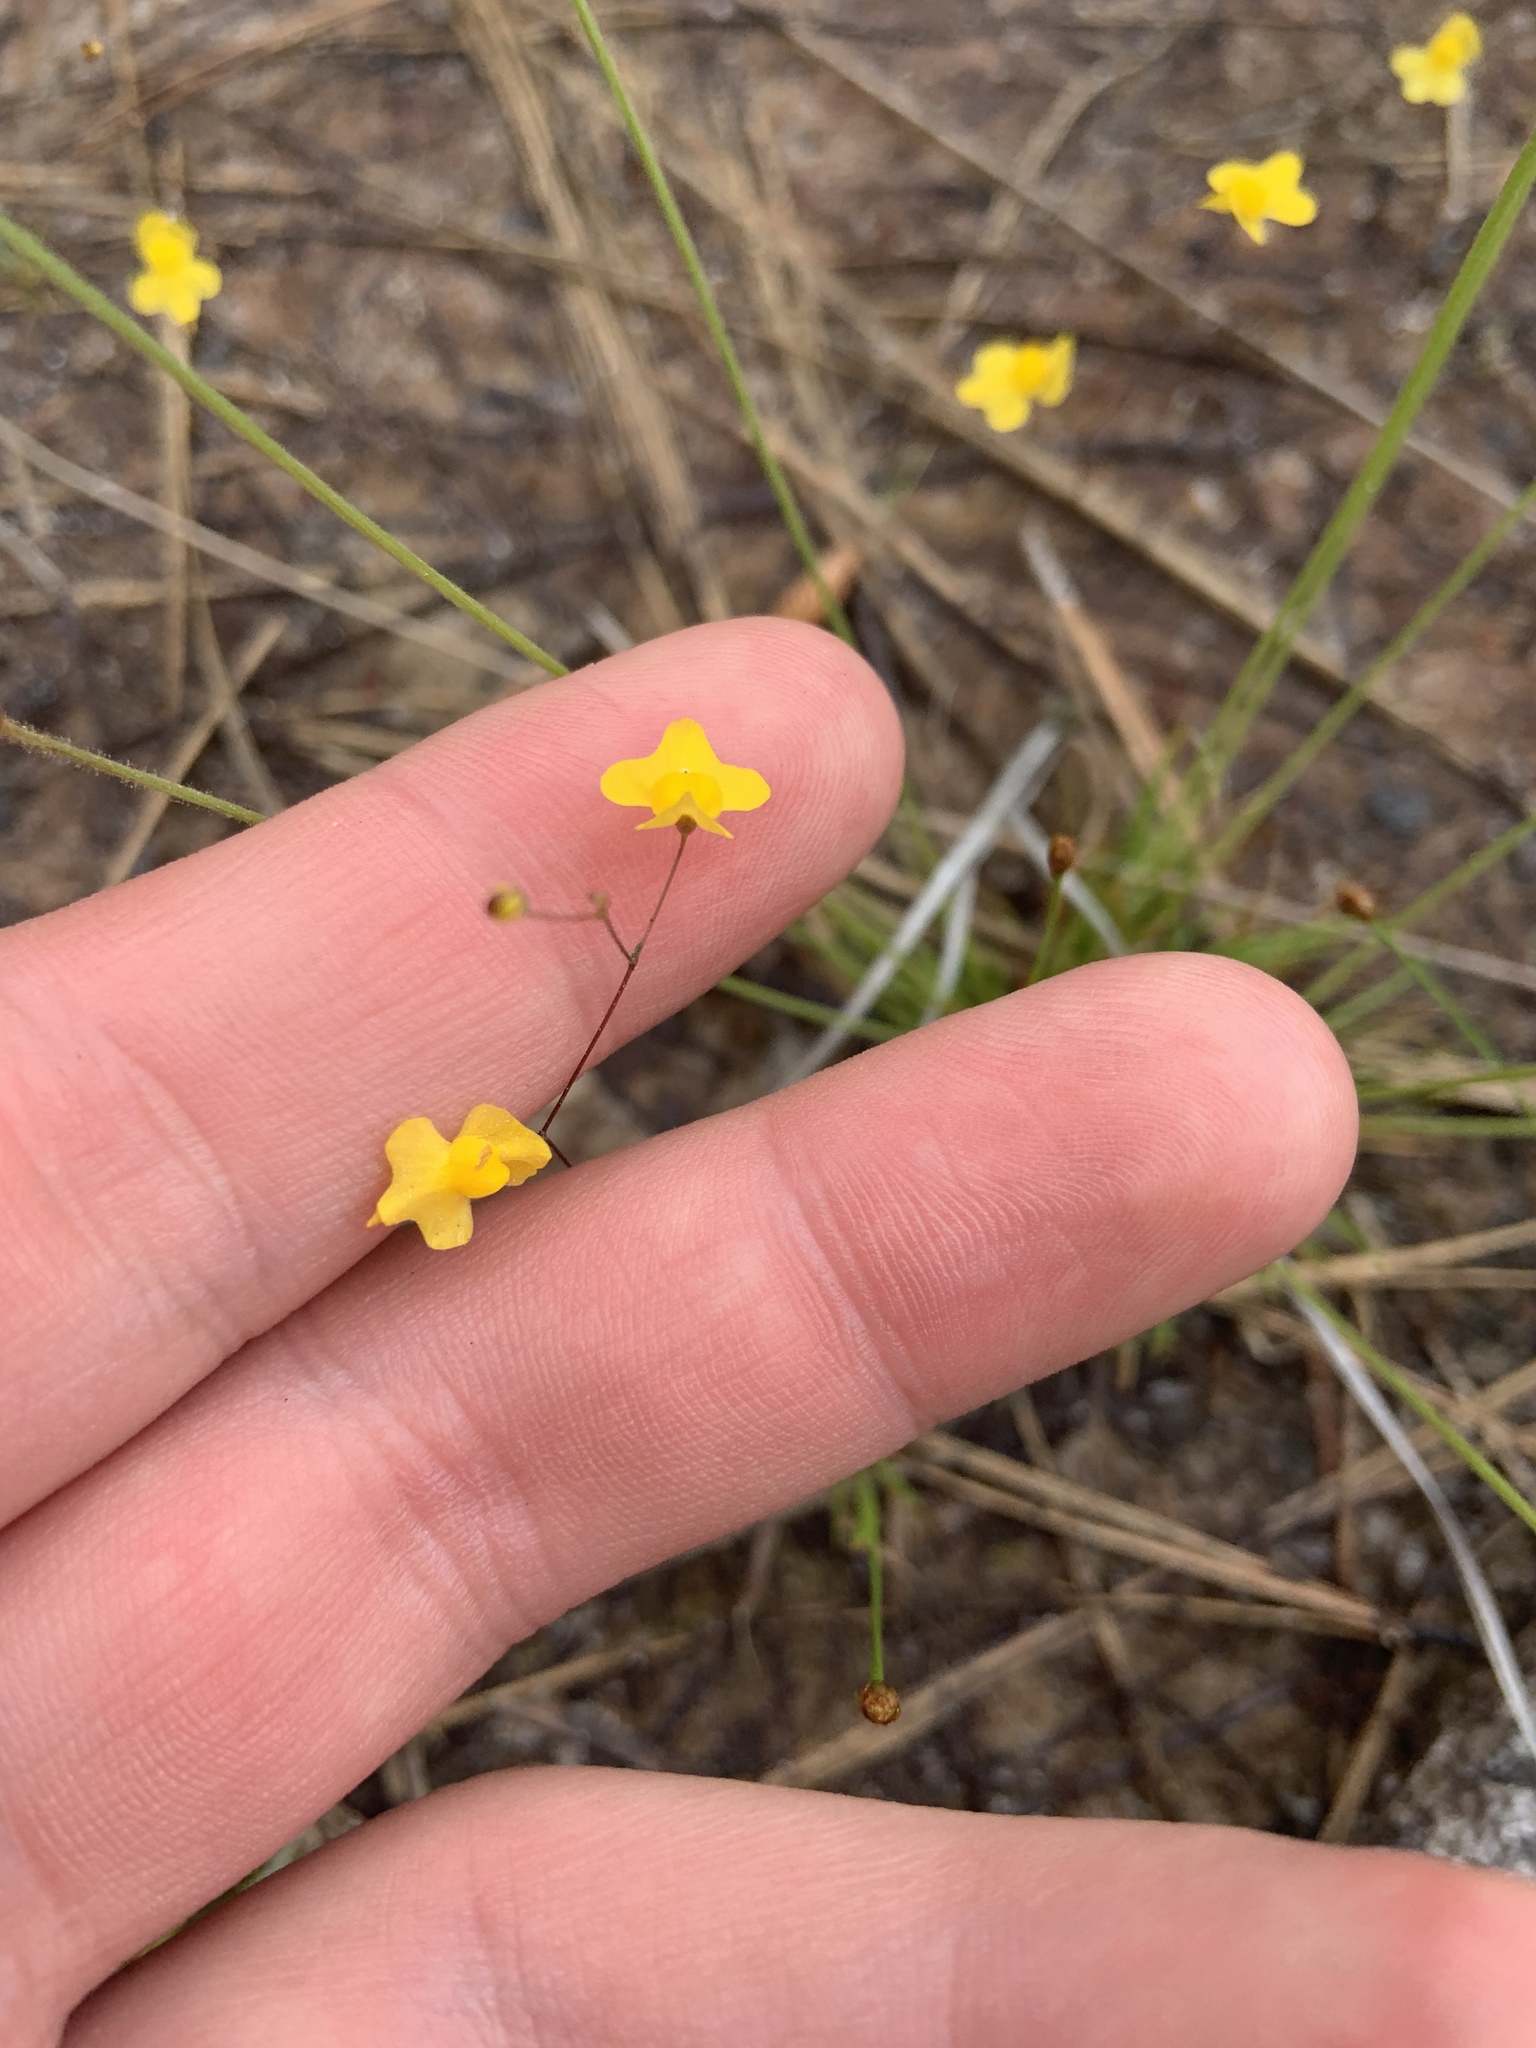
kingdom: Plantae
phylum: Tracheophyta
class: Magnoliopsida
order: Lamiales
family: Lentibulariaceae
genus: Utricularia
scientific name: Utricularia subulata
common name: Tiny bladderwort
